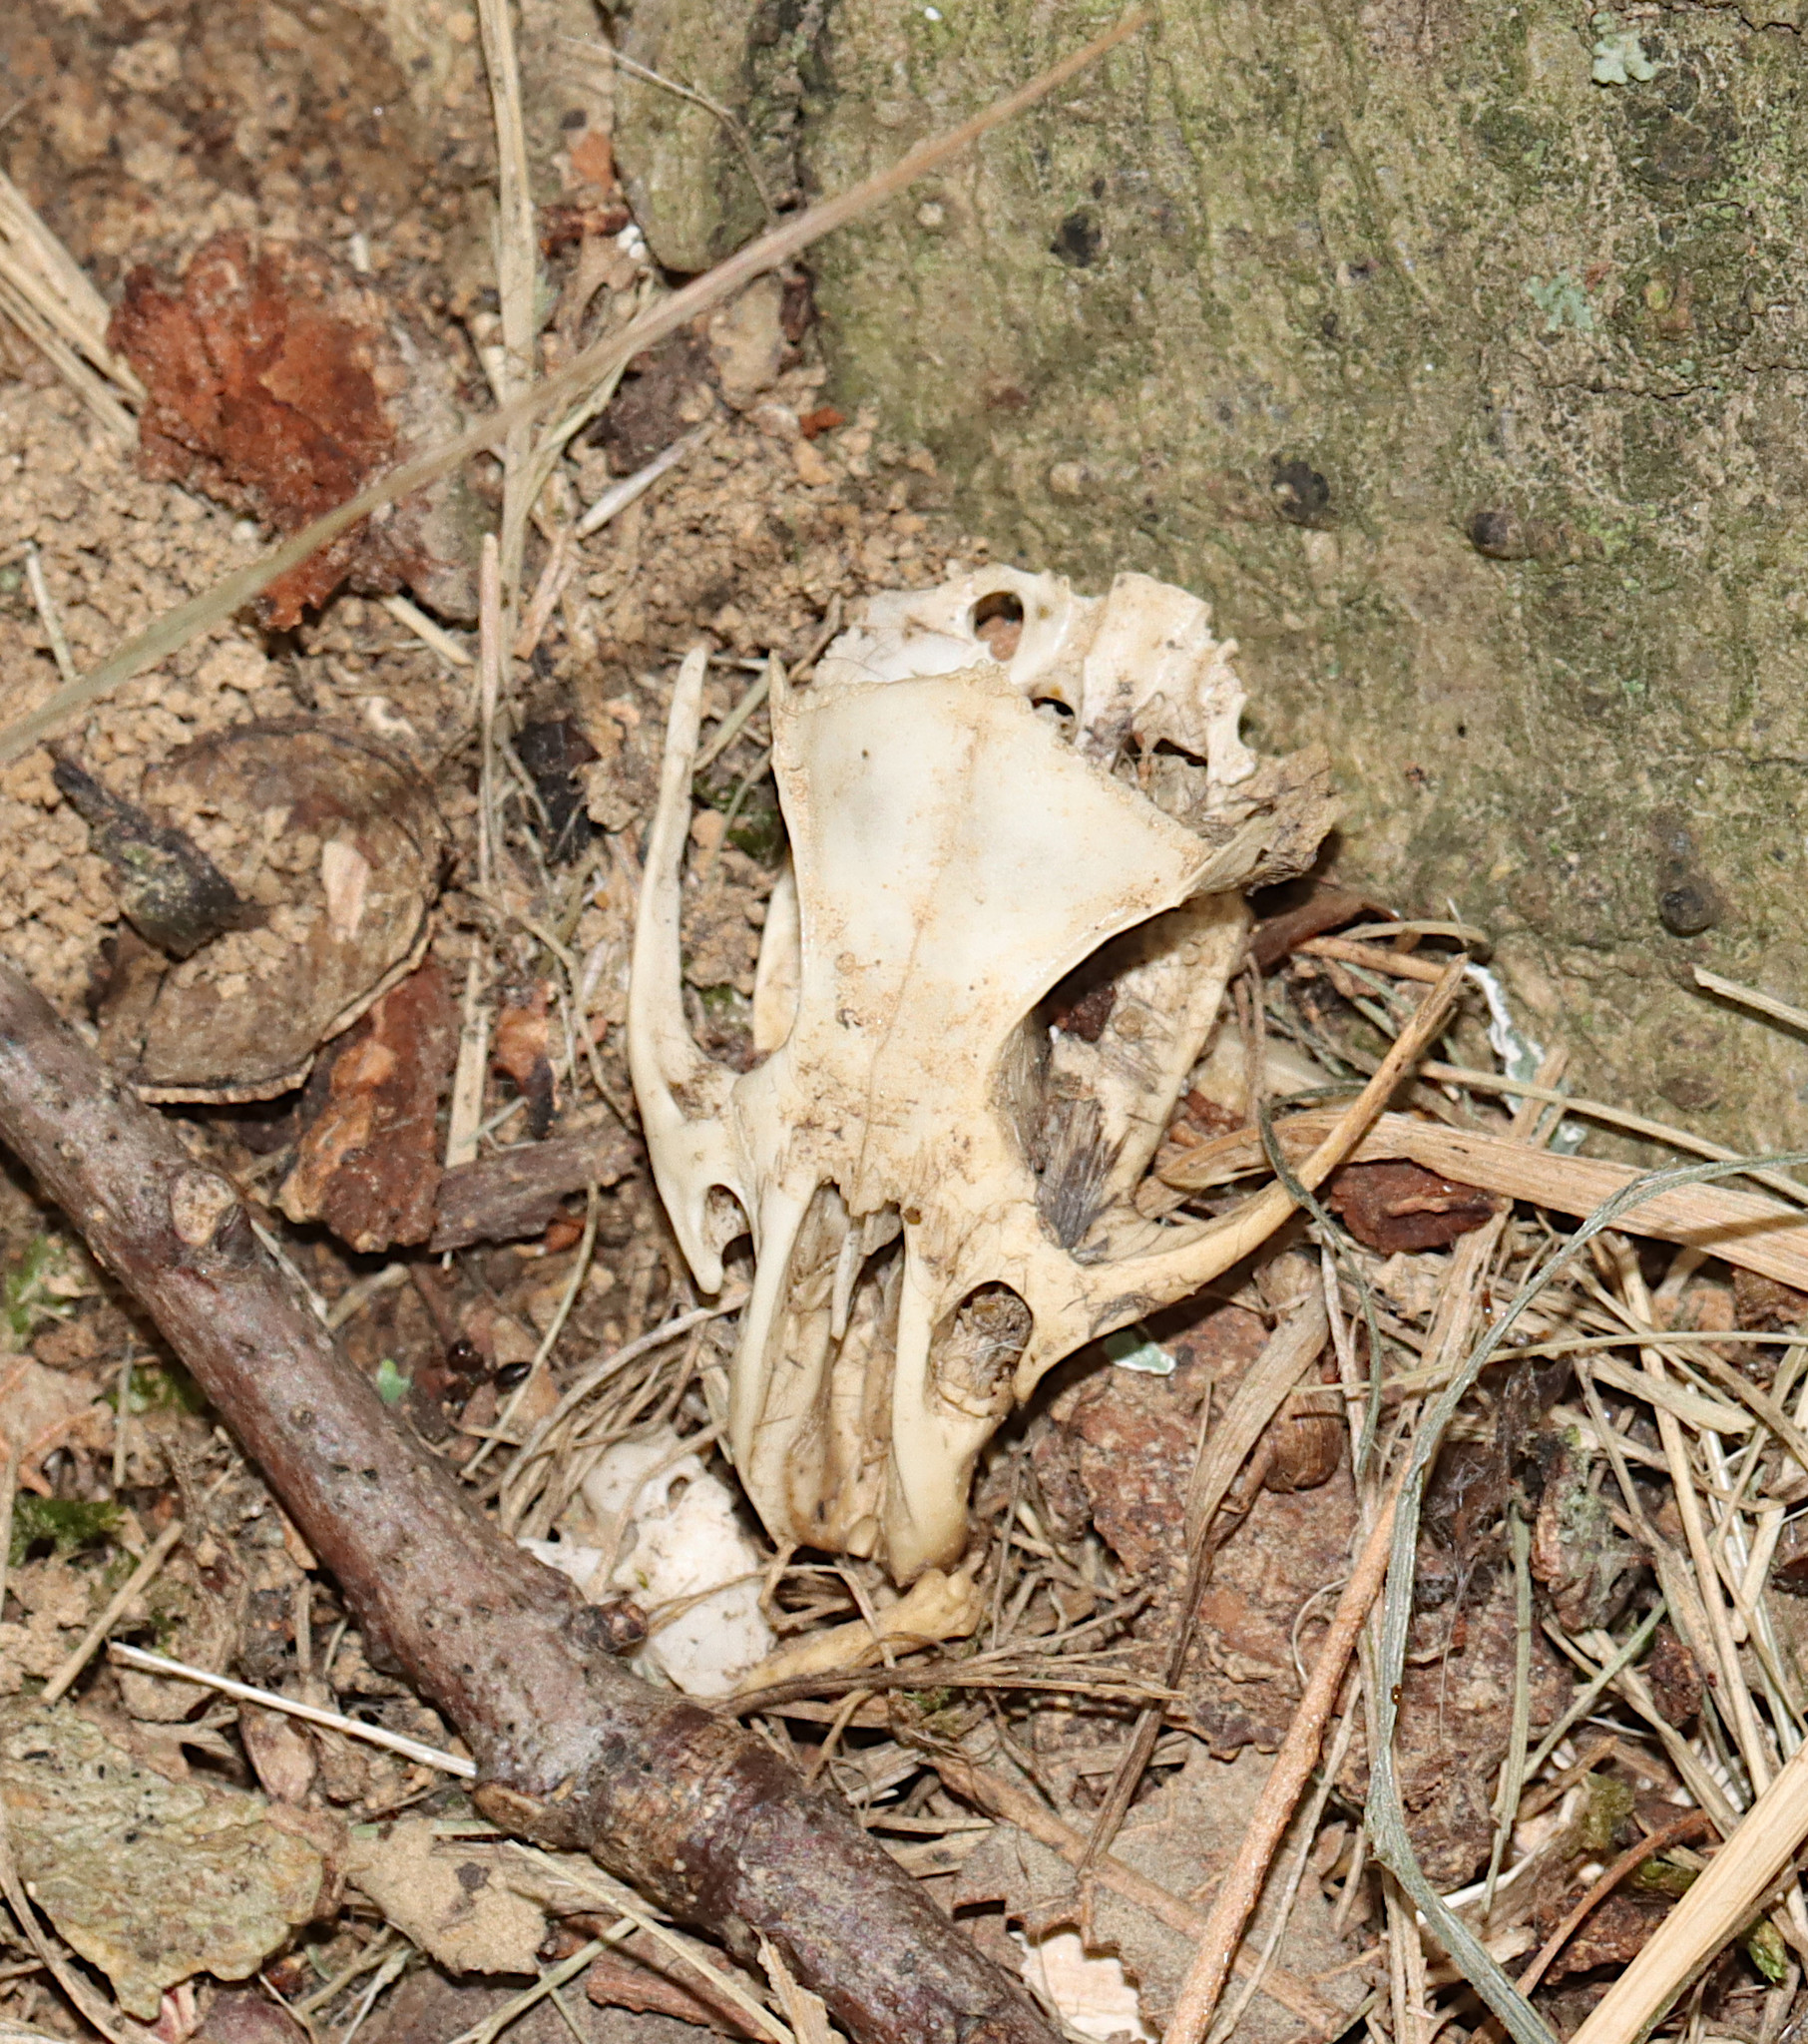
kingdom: Animalia
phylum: Chordata
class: Mammalia
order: Rodentia
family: Cricetidae
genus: Sigmodon
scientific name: Sigmodon hispidus
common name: Hispid cotton rat
